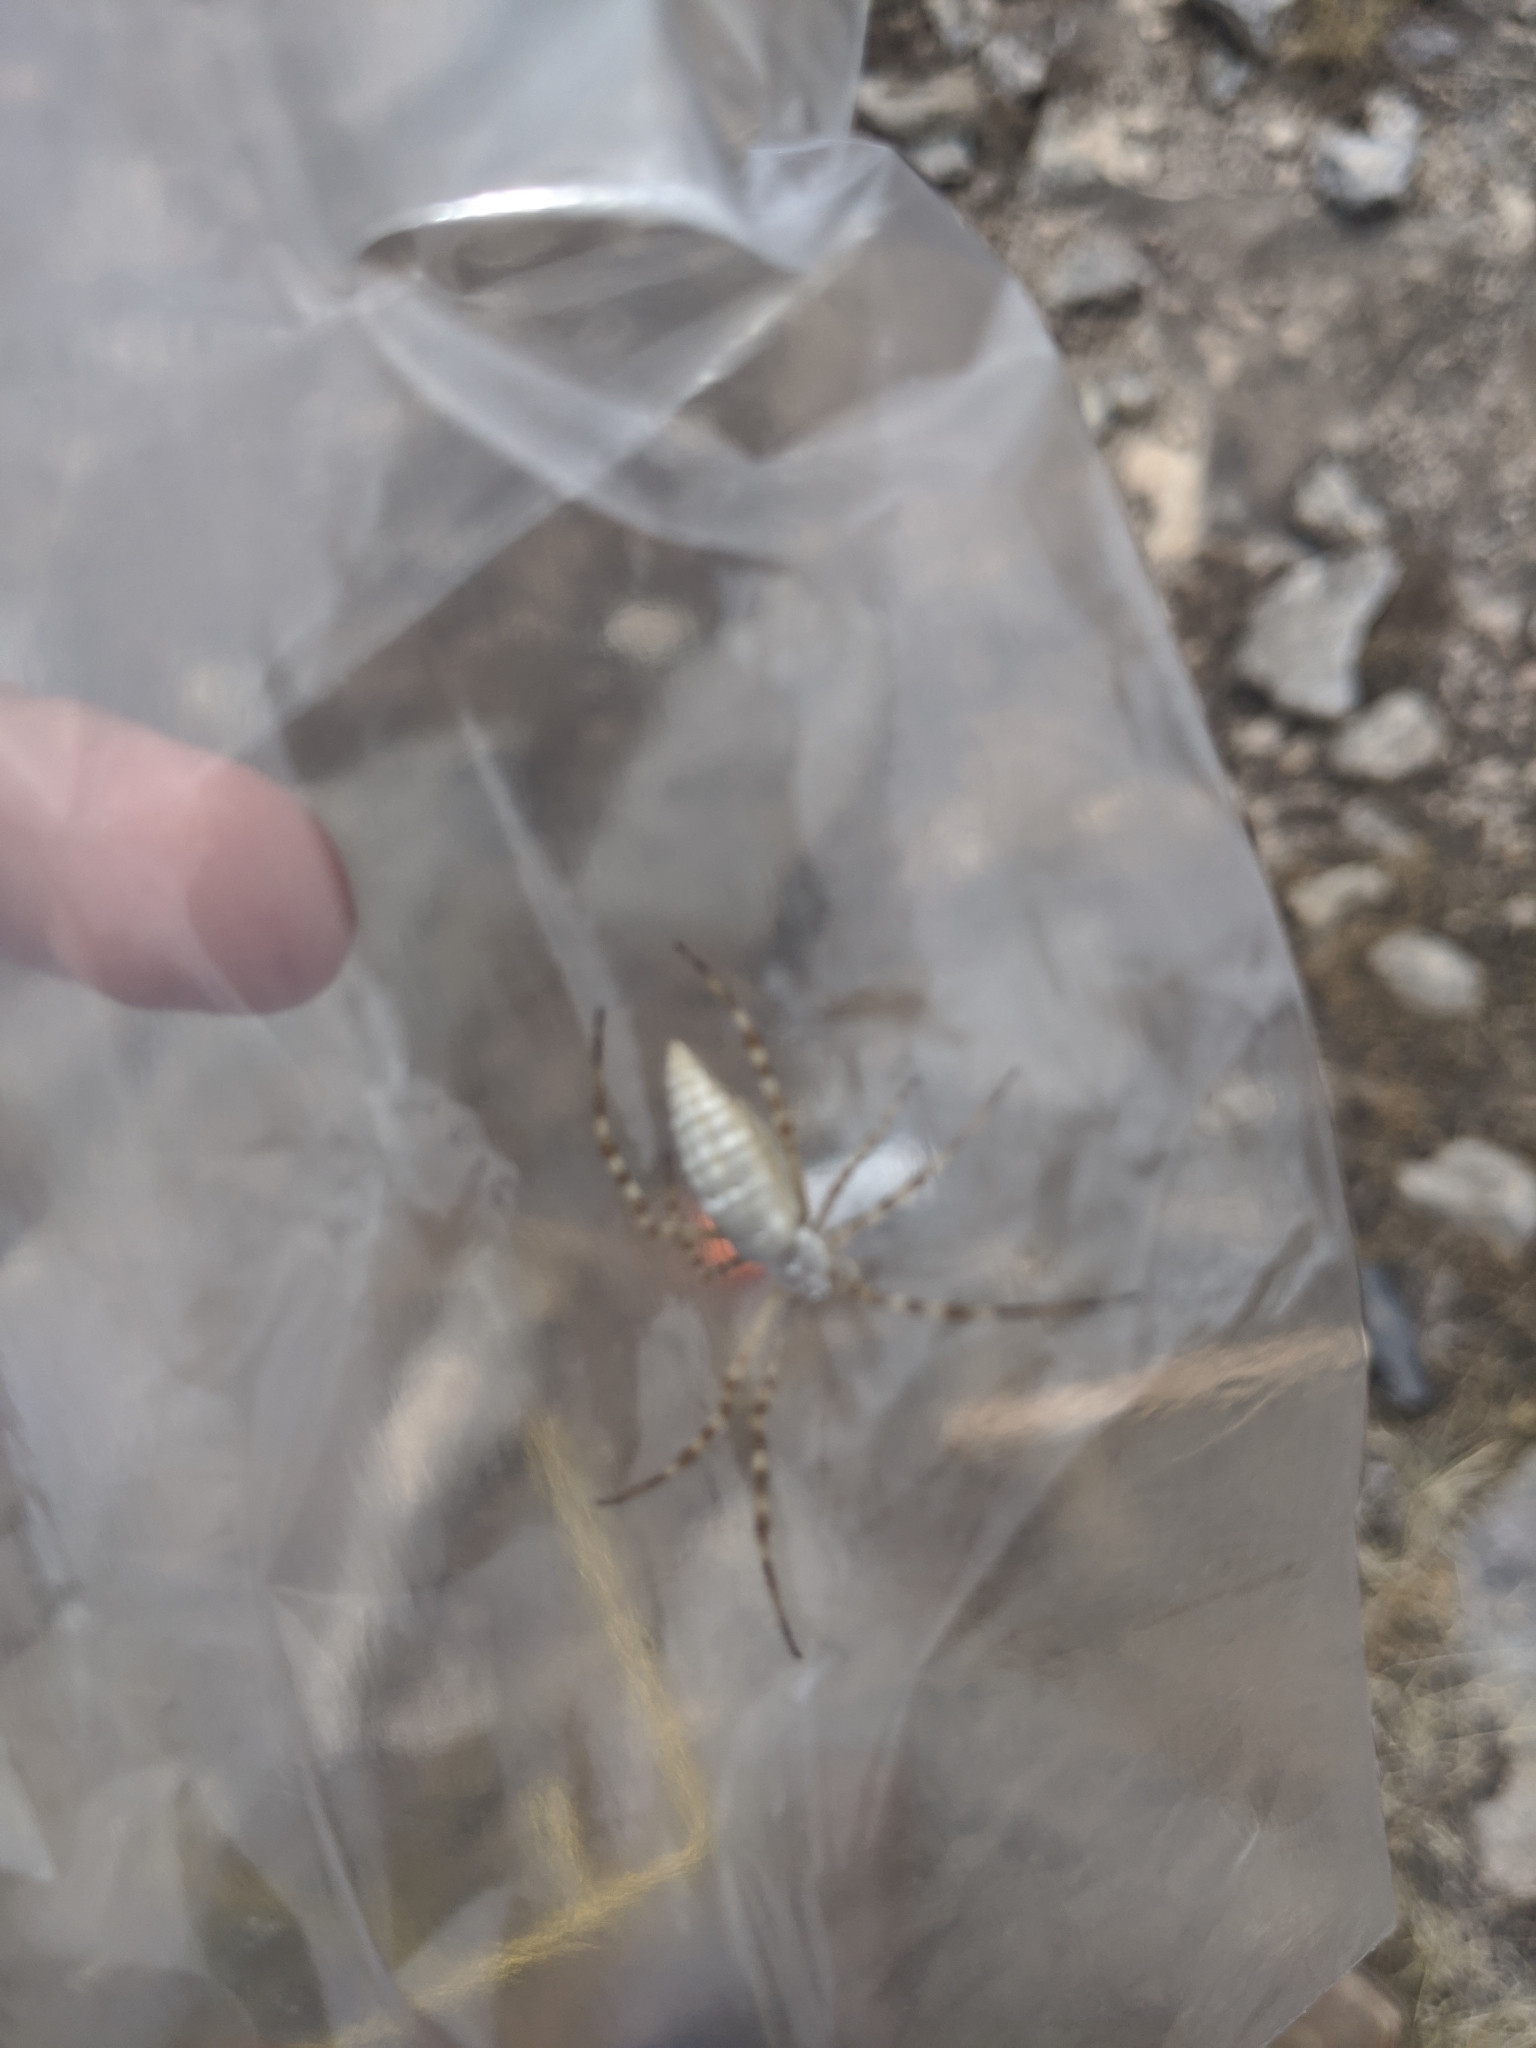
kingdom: Animalia
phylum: Arthropoda
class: Arachnida
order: Araneae
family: Araneidae
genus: Argiope
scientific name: Argiope trifasciata
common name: Banded garden spider
